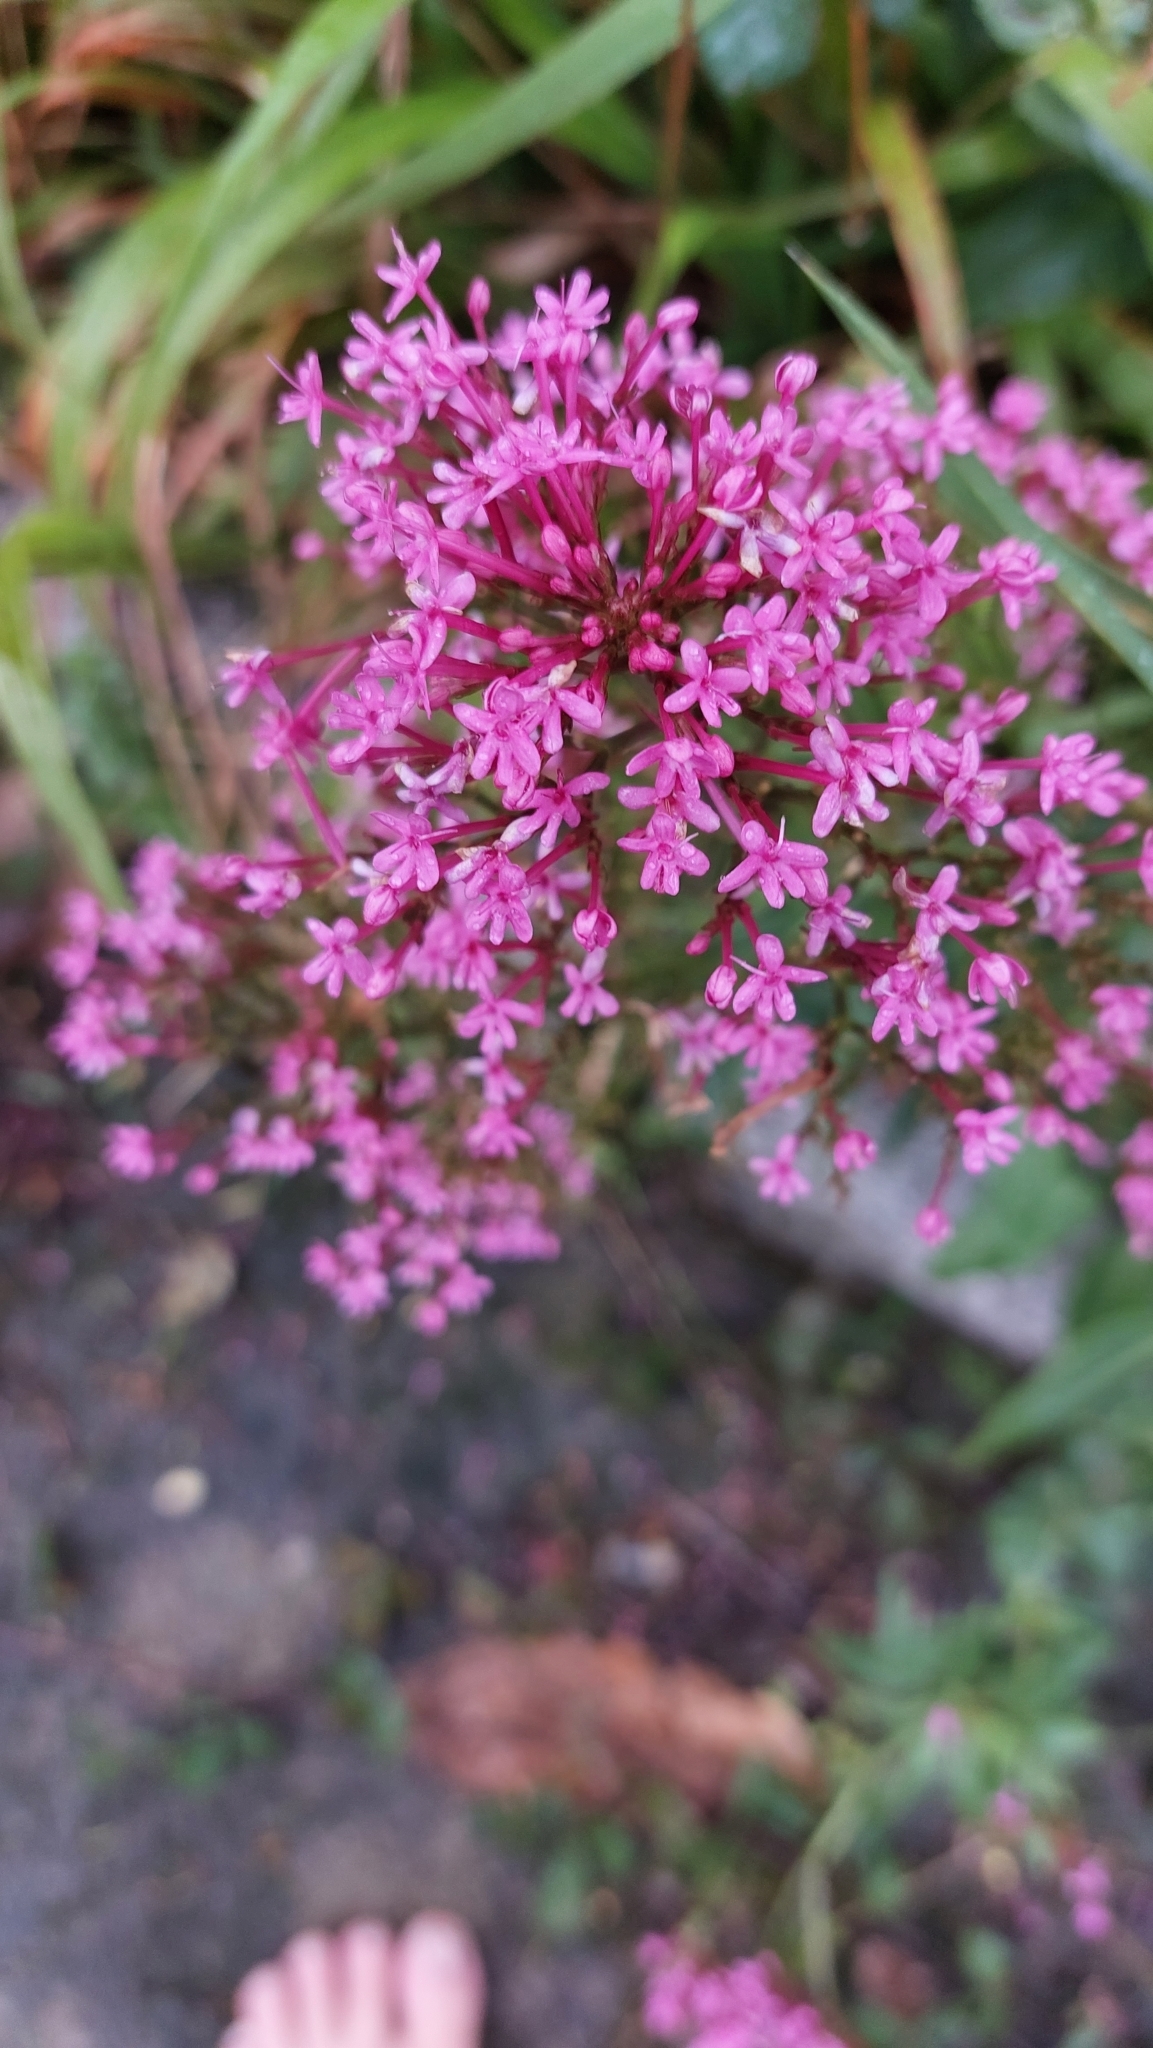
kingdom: Plantae
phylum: Tracheophyta
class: Magnoliopsida
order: Dipsacales
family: Caprifoliaceae
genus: Centranthus
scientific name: Centranthus ruber
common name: Red valerian
